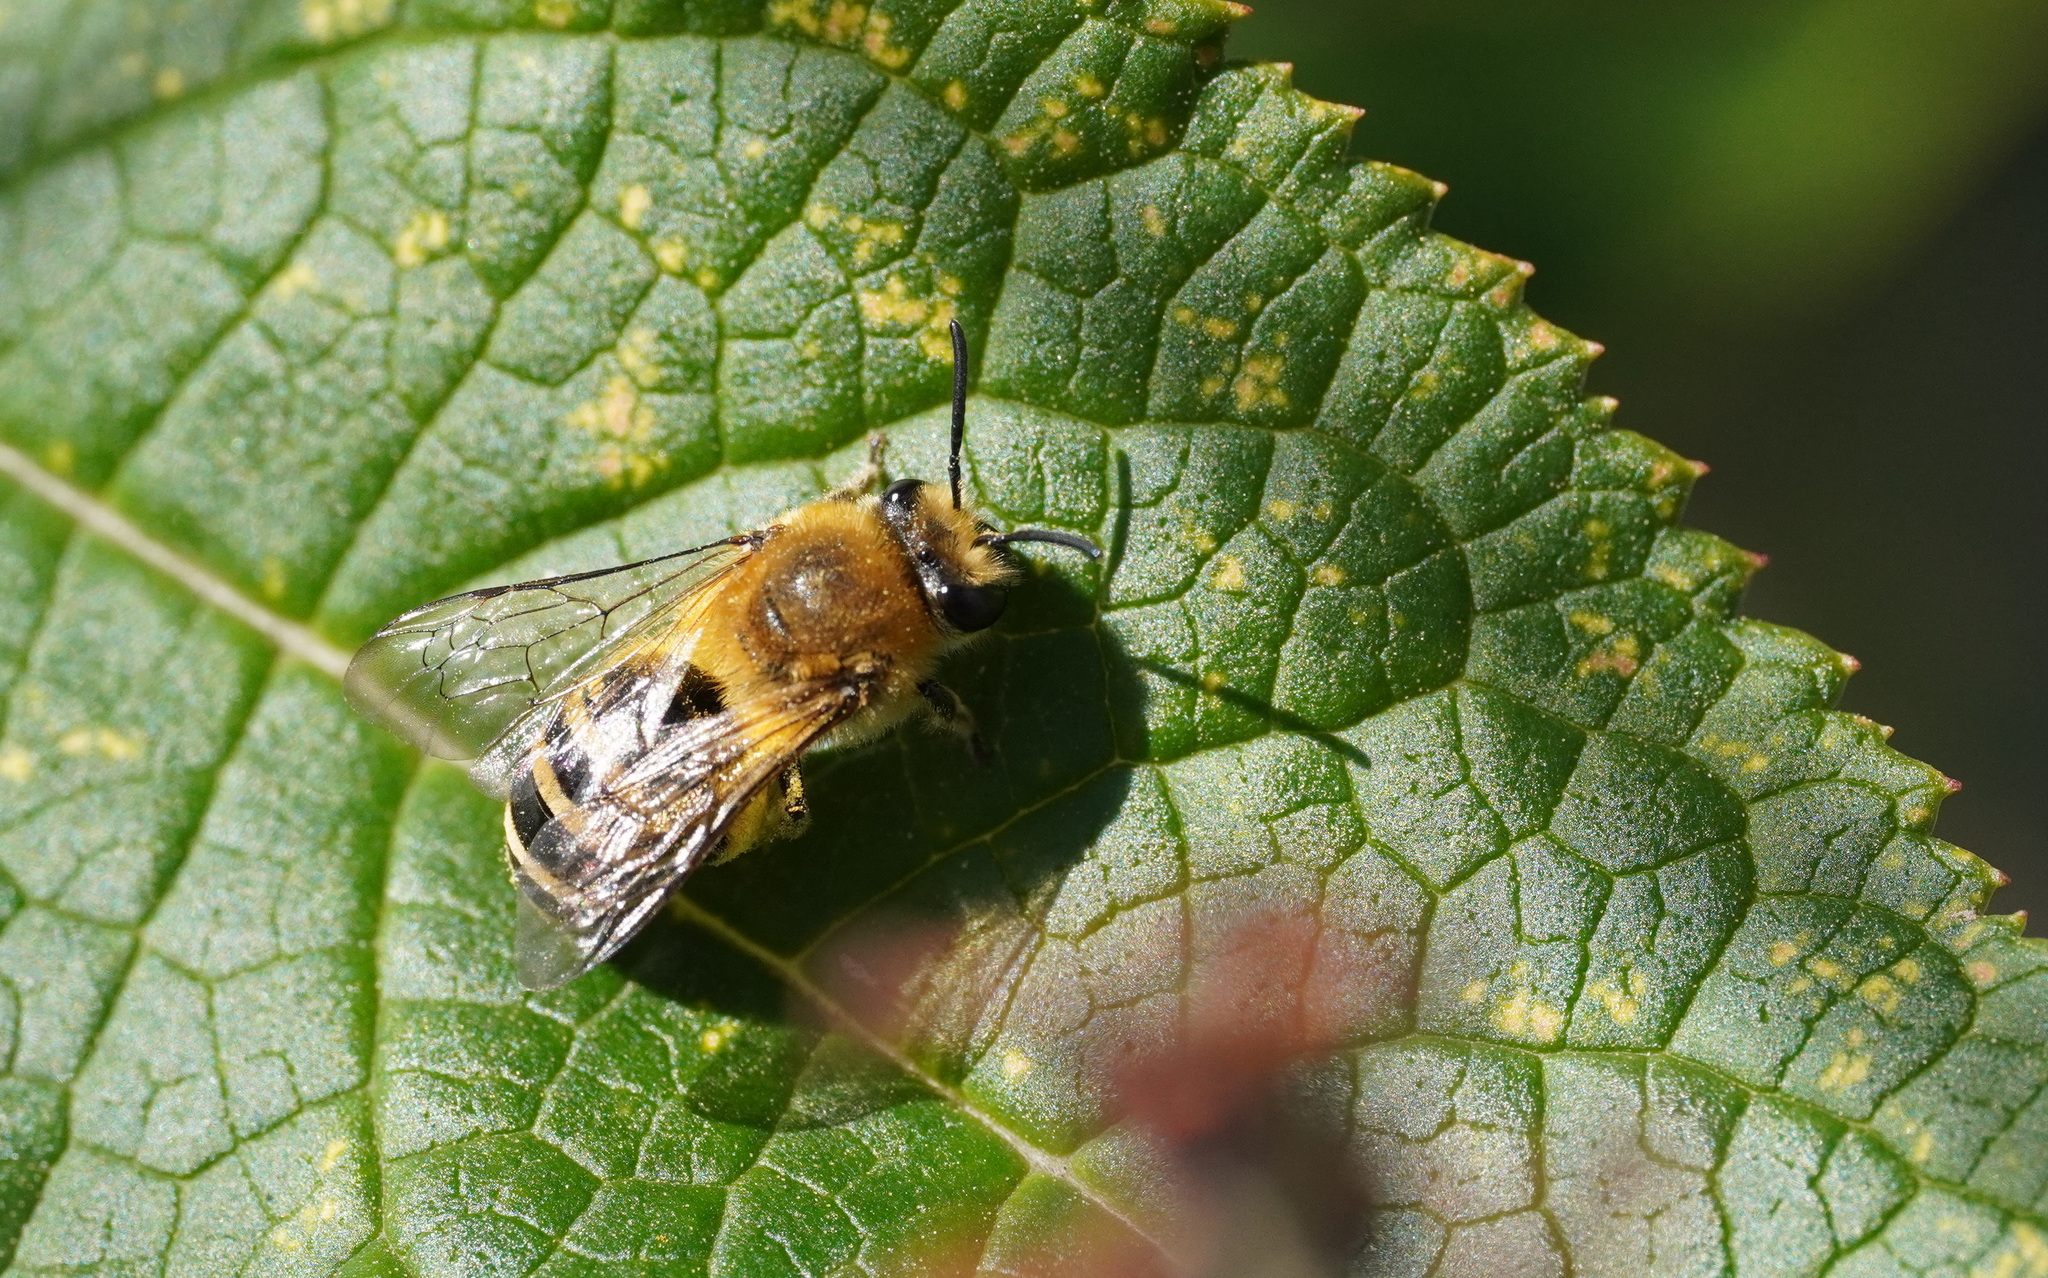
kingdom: Animalia
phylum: Arthropoda
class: Insecta
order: Hymenoptera
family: Colletidae
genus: Colletes
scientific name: Colletes hederae
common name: Ivy bee
